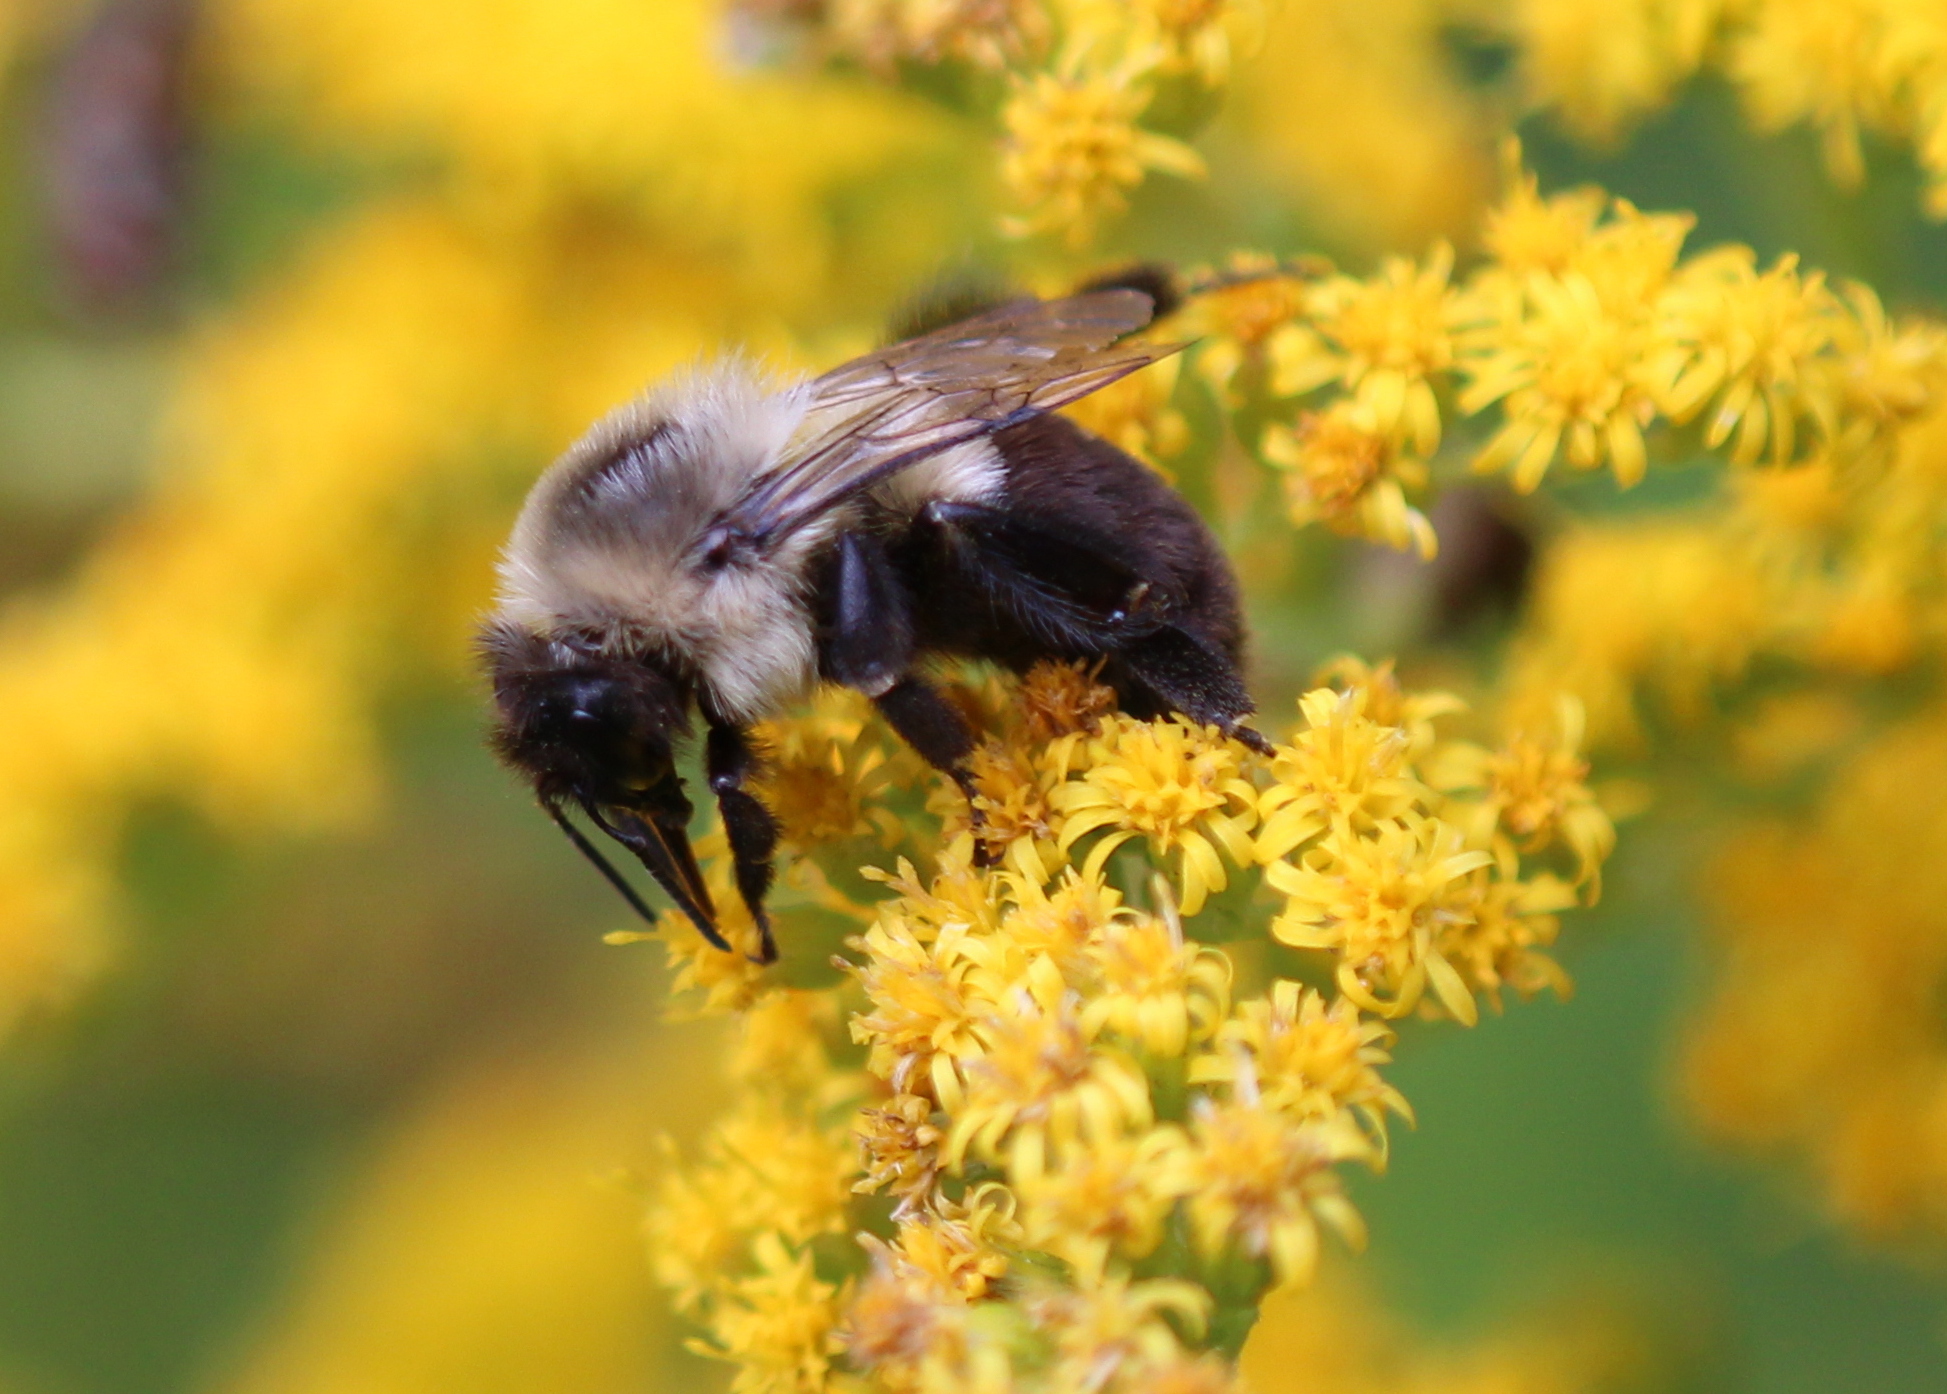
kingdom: Animalia
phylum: Arthropoda
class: Insecta
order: Hymenoptera
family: Apidae
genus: Bombus
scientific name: Bombus impatiens
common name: Common eastern bumble bee
